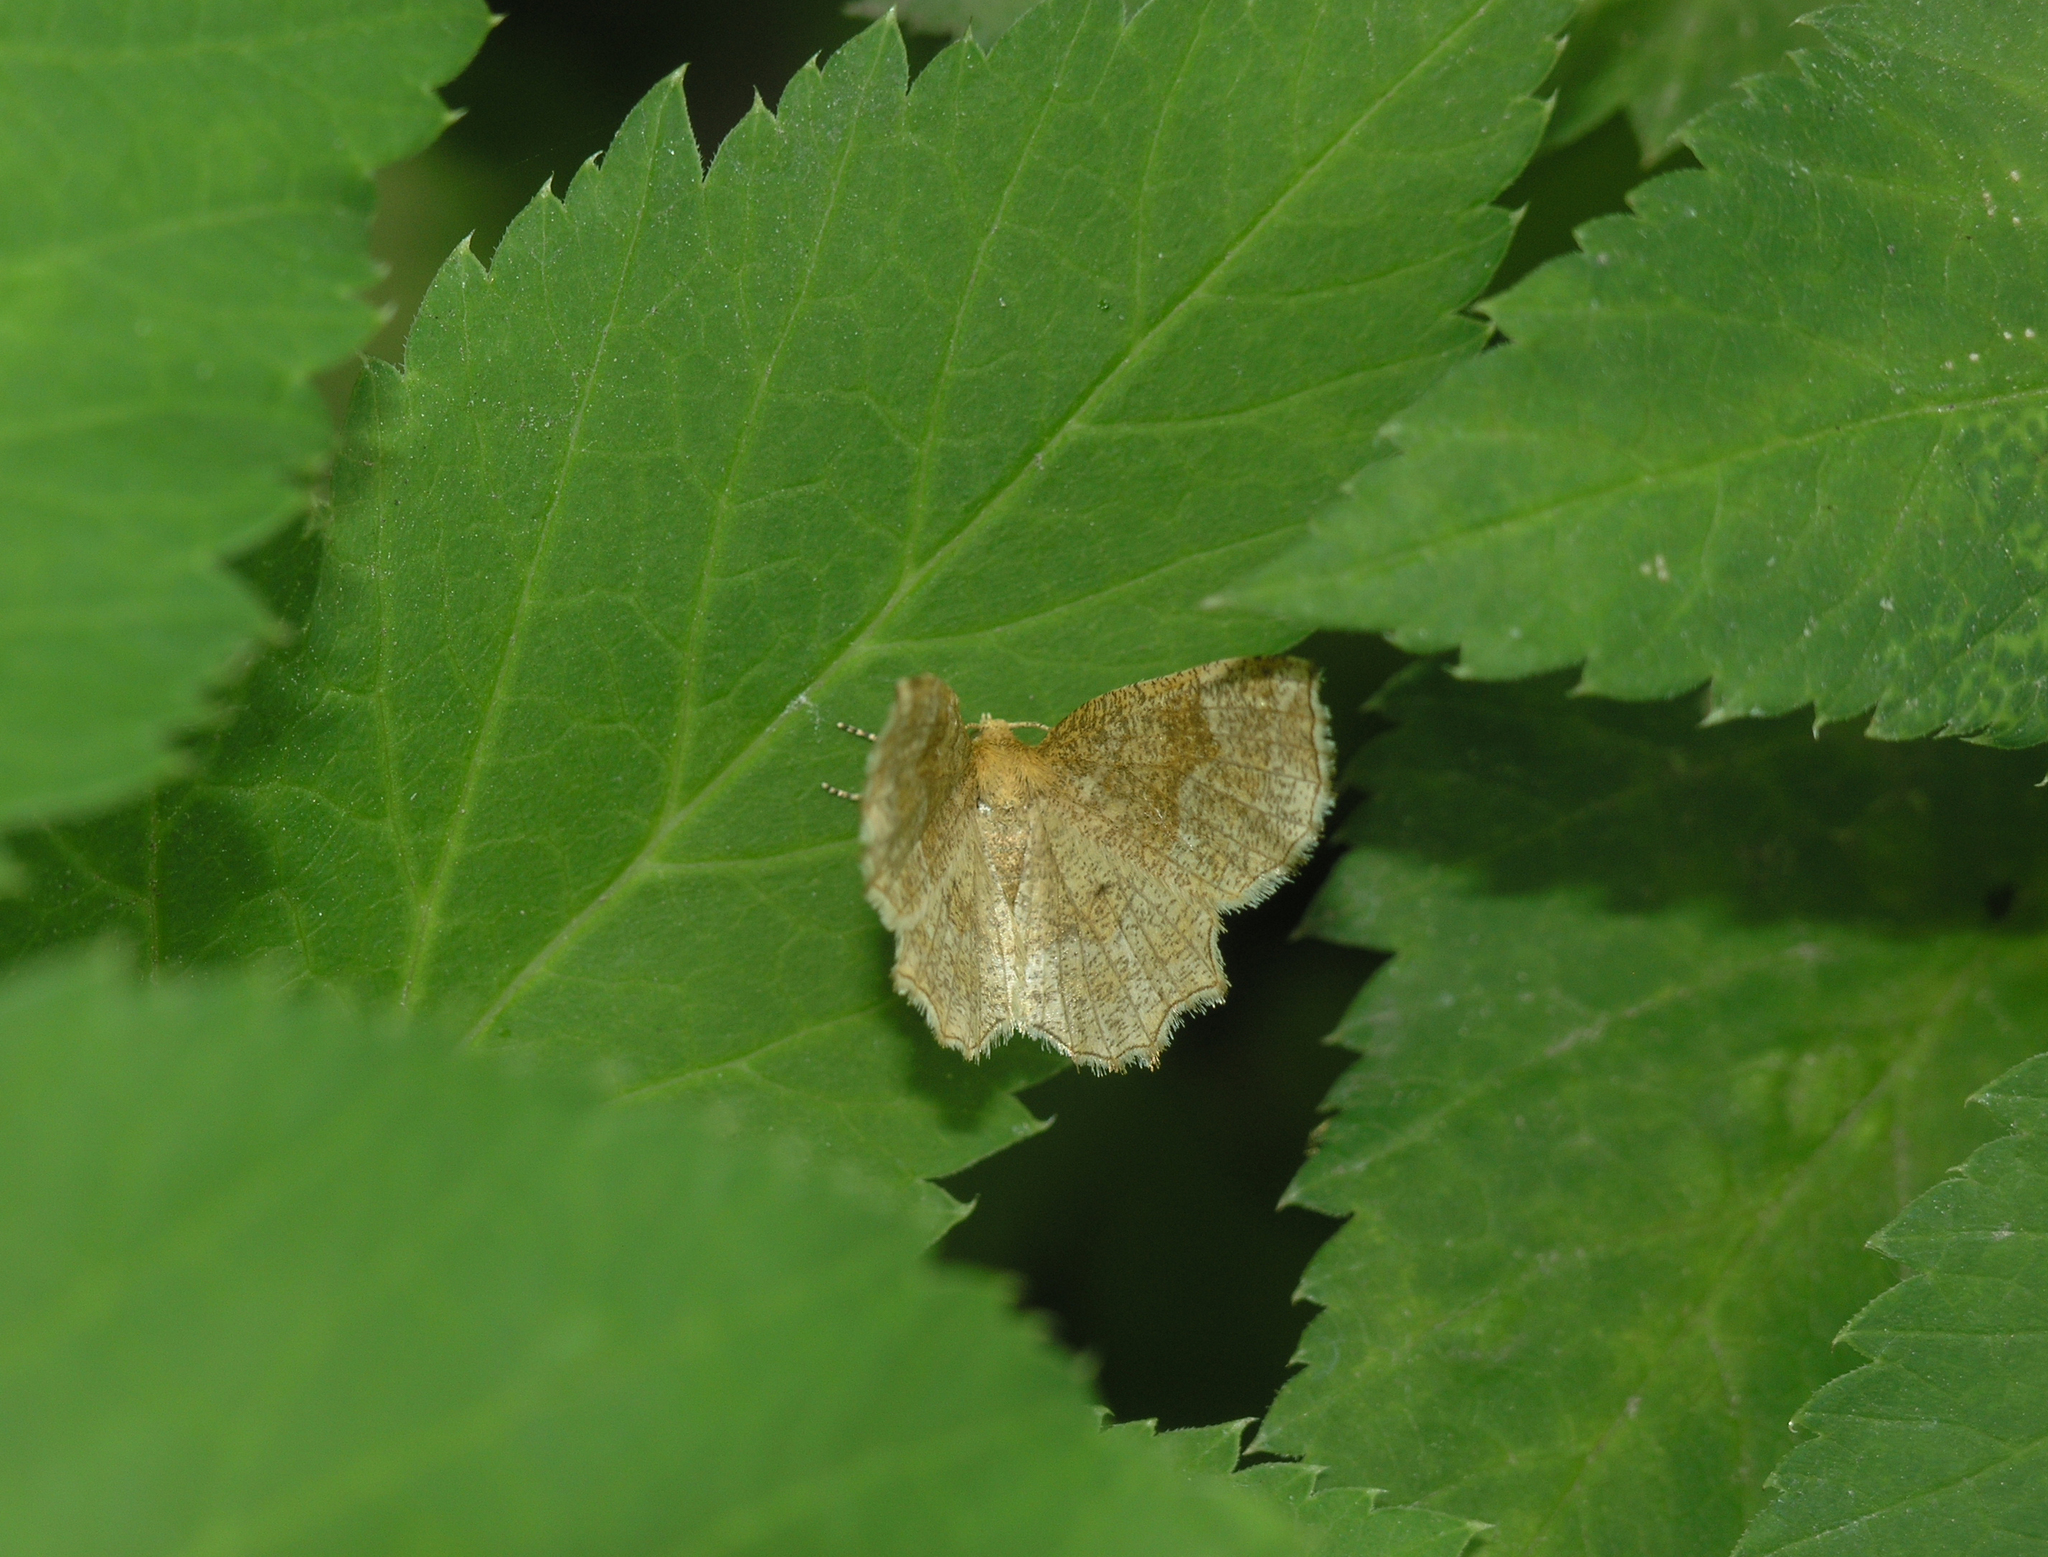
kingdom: Animalia
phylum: Arthropoda
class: Insecta
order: Lepidoptera
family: Geometridae
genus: Cepphis
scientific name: Cepphis advenaria
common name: Little thorn
